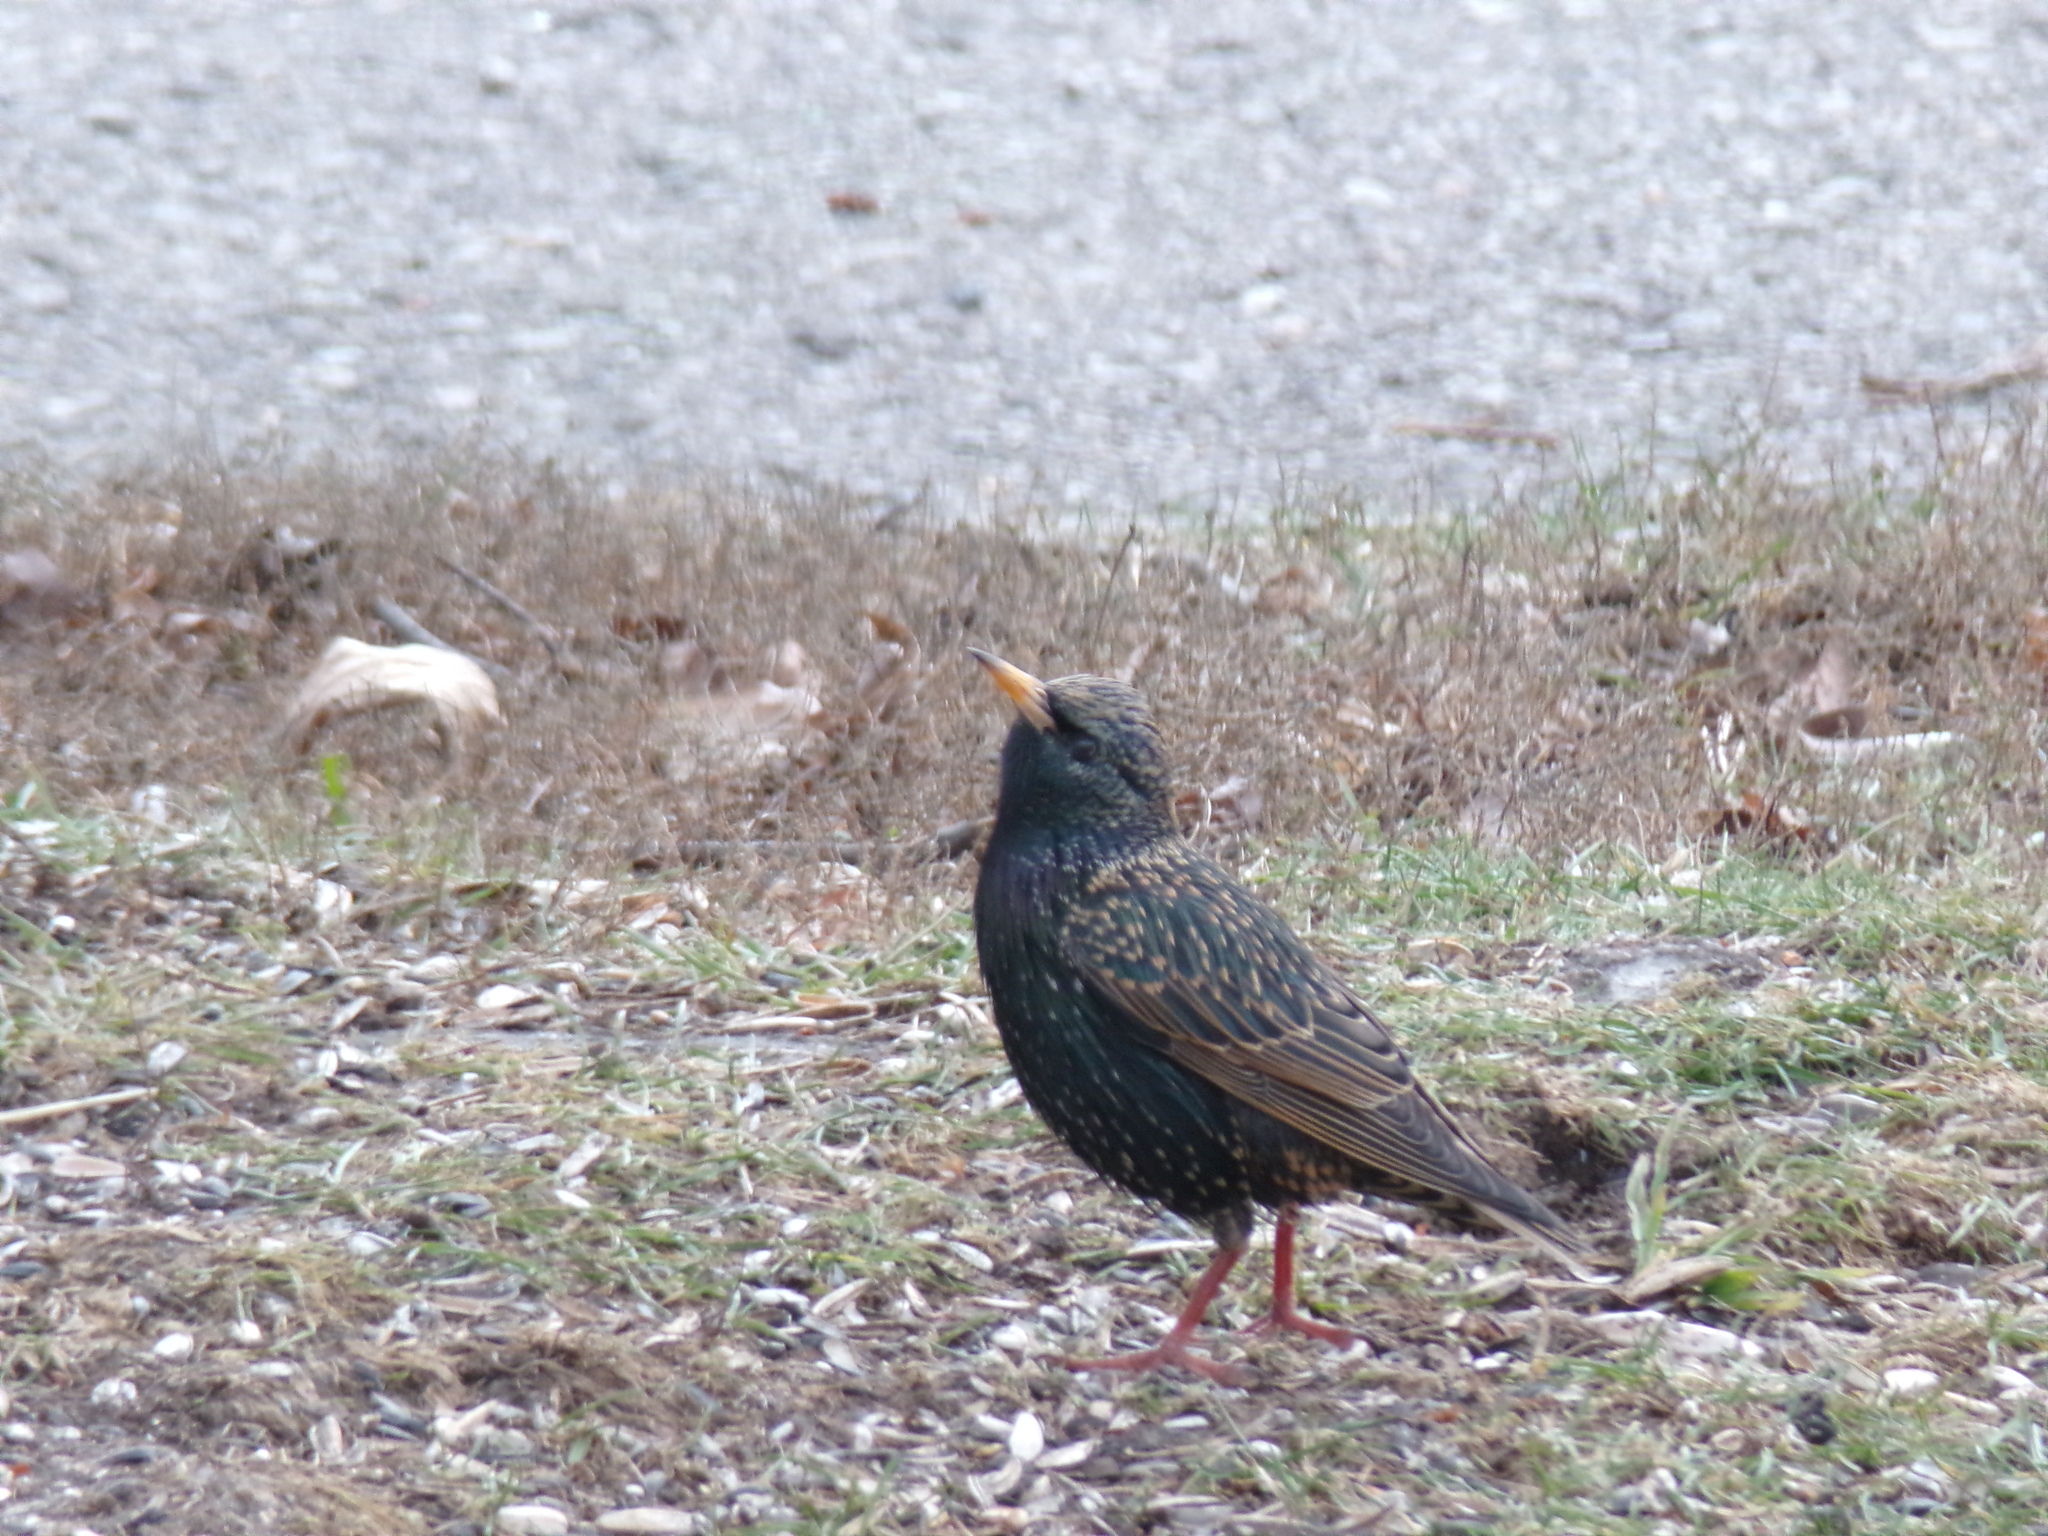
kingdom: Animalia
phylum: Chordata
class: Aves
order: Passeriformes
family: Sturnidae
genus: Sturnus
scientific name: Sturnus vulgaris
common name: Common starling
